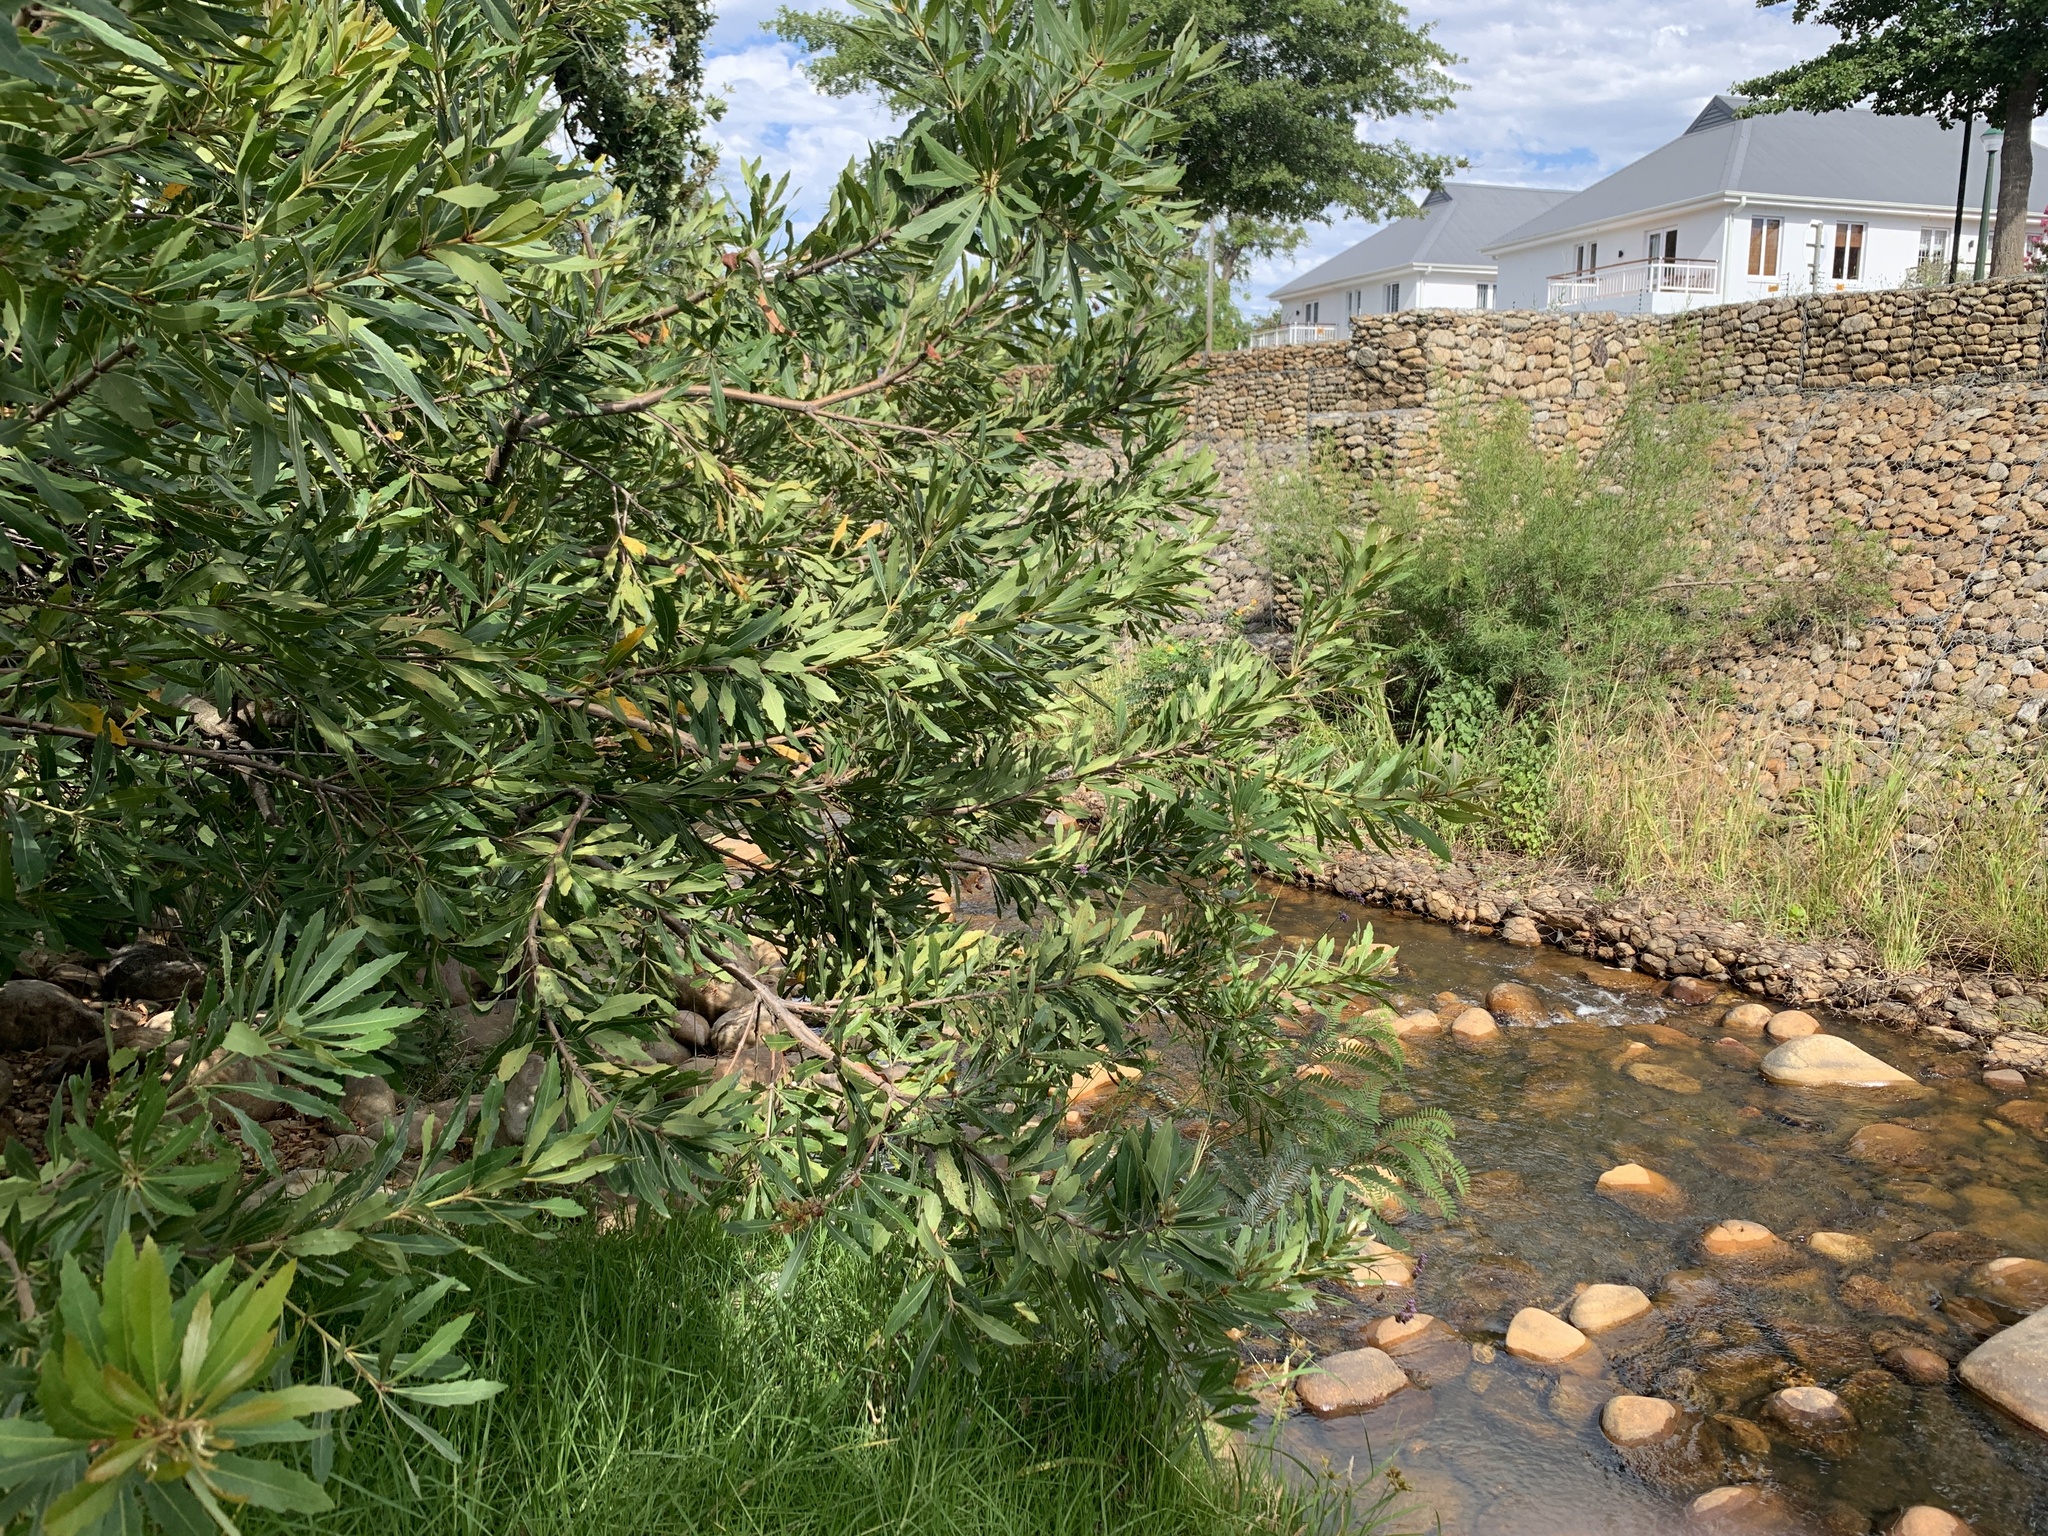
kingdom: Plantae
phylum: Tracheophyta
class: Magnoliopsida
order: Proteales
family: Proteaceae
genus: Brabejum
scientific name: Brabejum stellatifolium
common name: Wild almond
